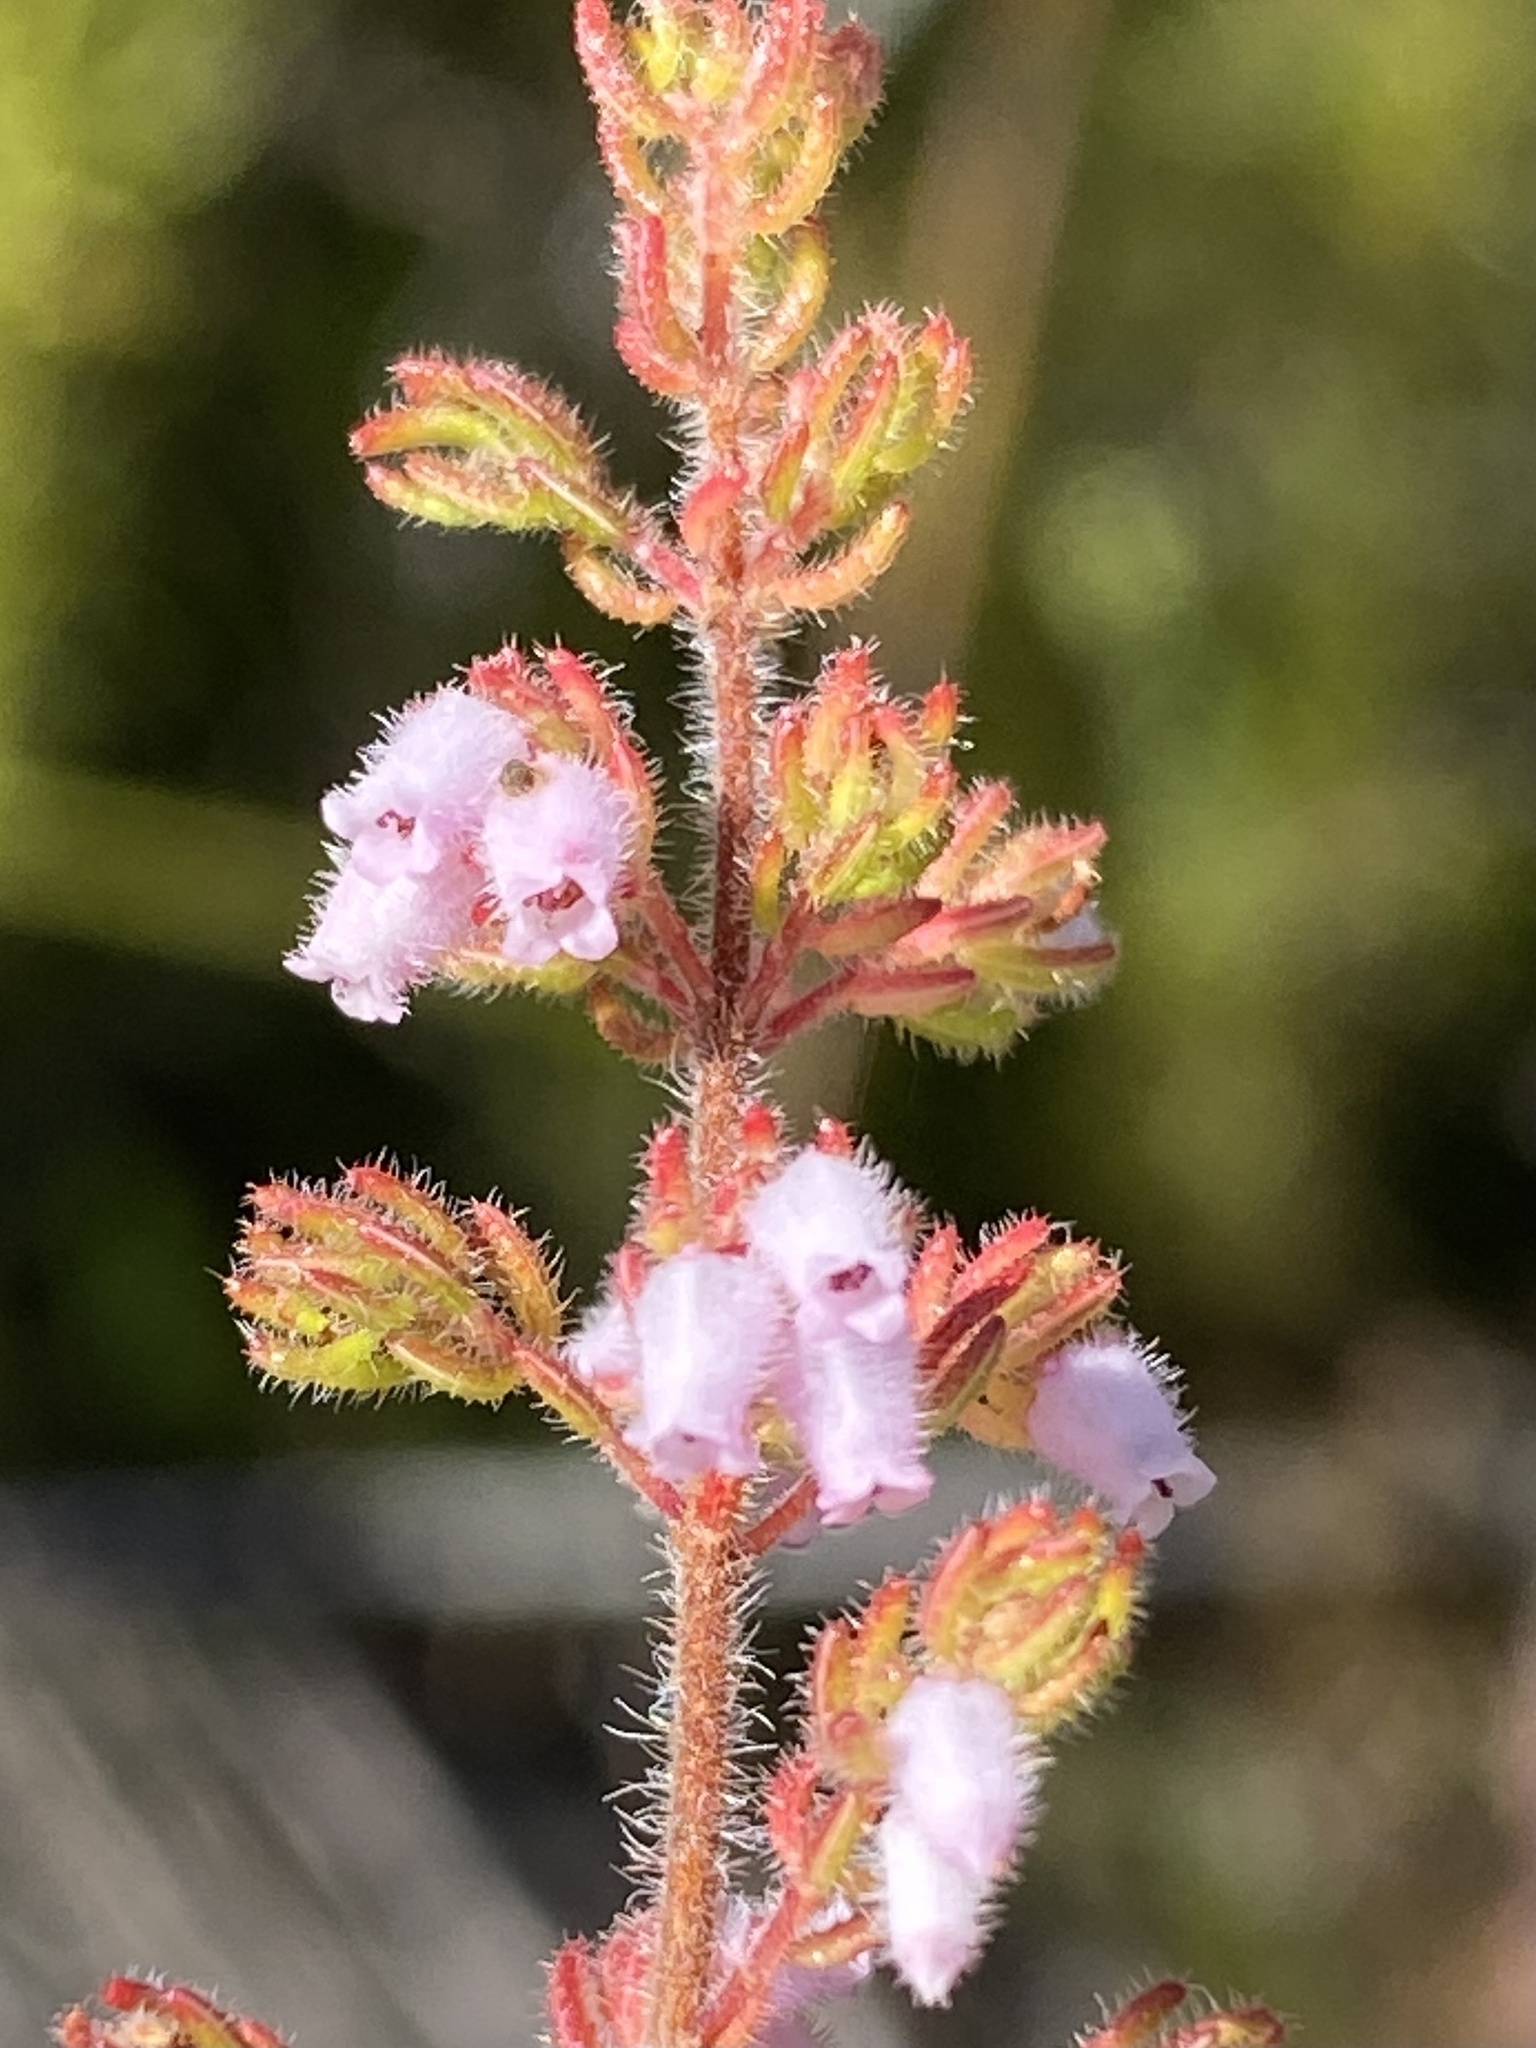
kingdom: Plantae
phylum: Tracheophyta
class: Magnoliopsida
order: Ericales
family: Ericaceae
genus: Erica
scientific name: Erica parviflora
